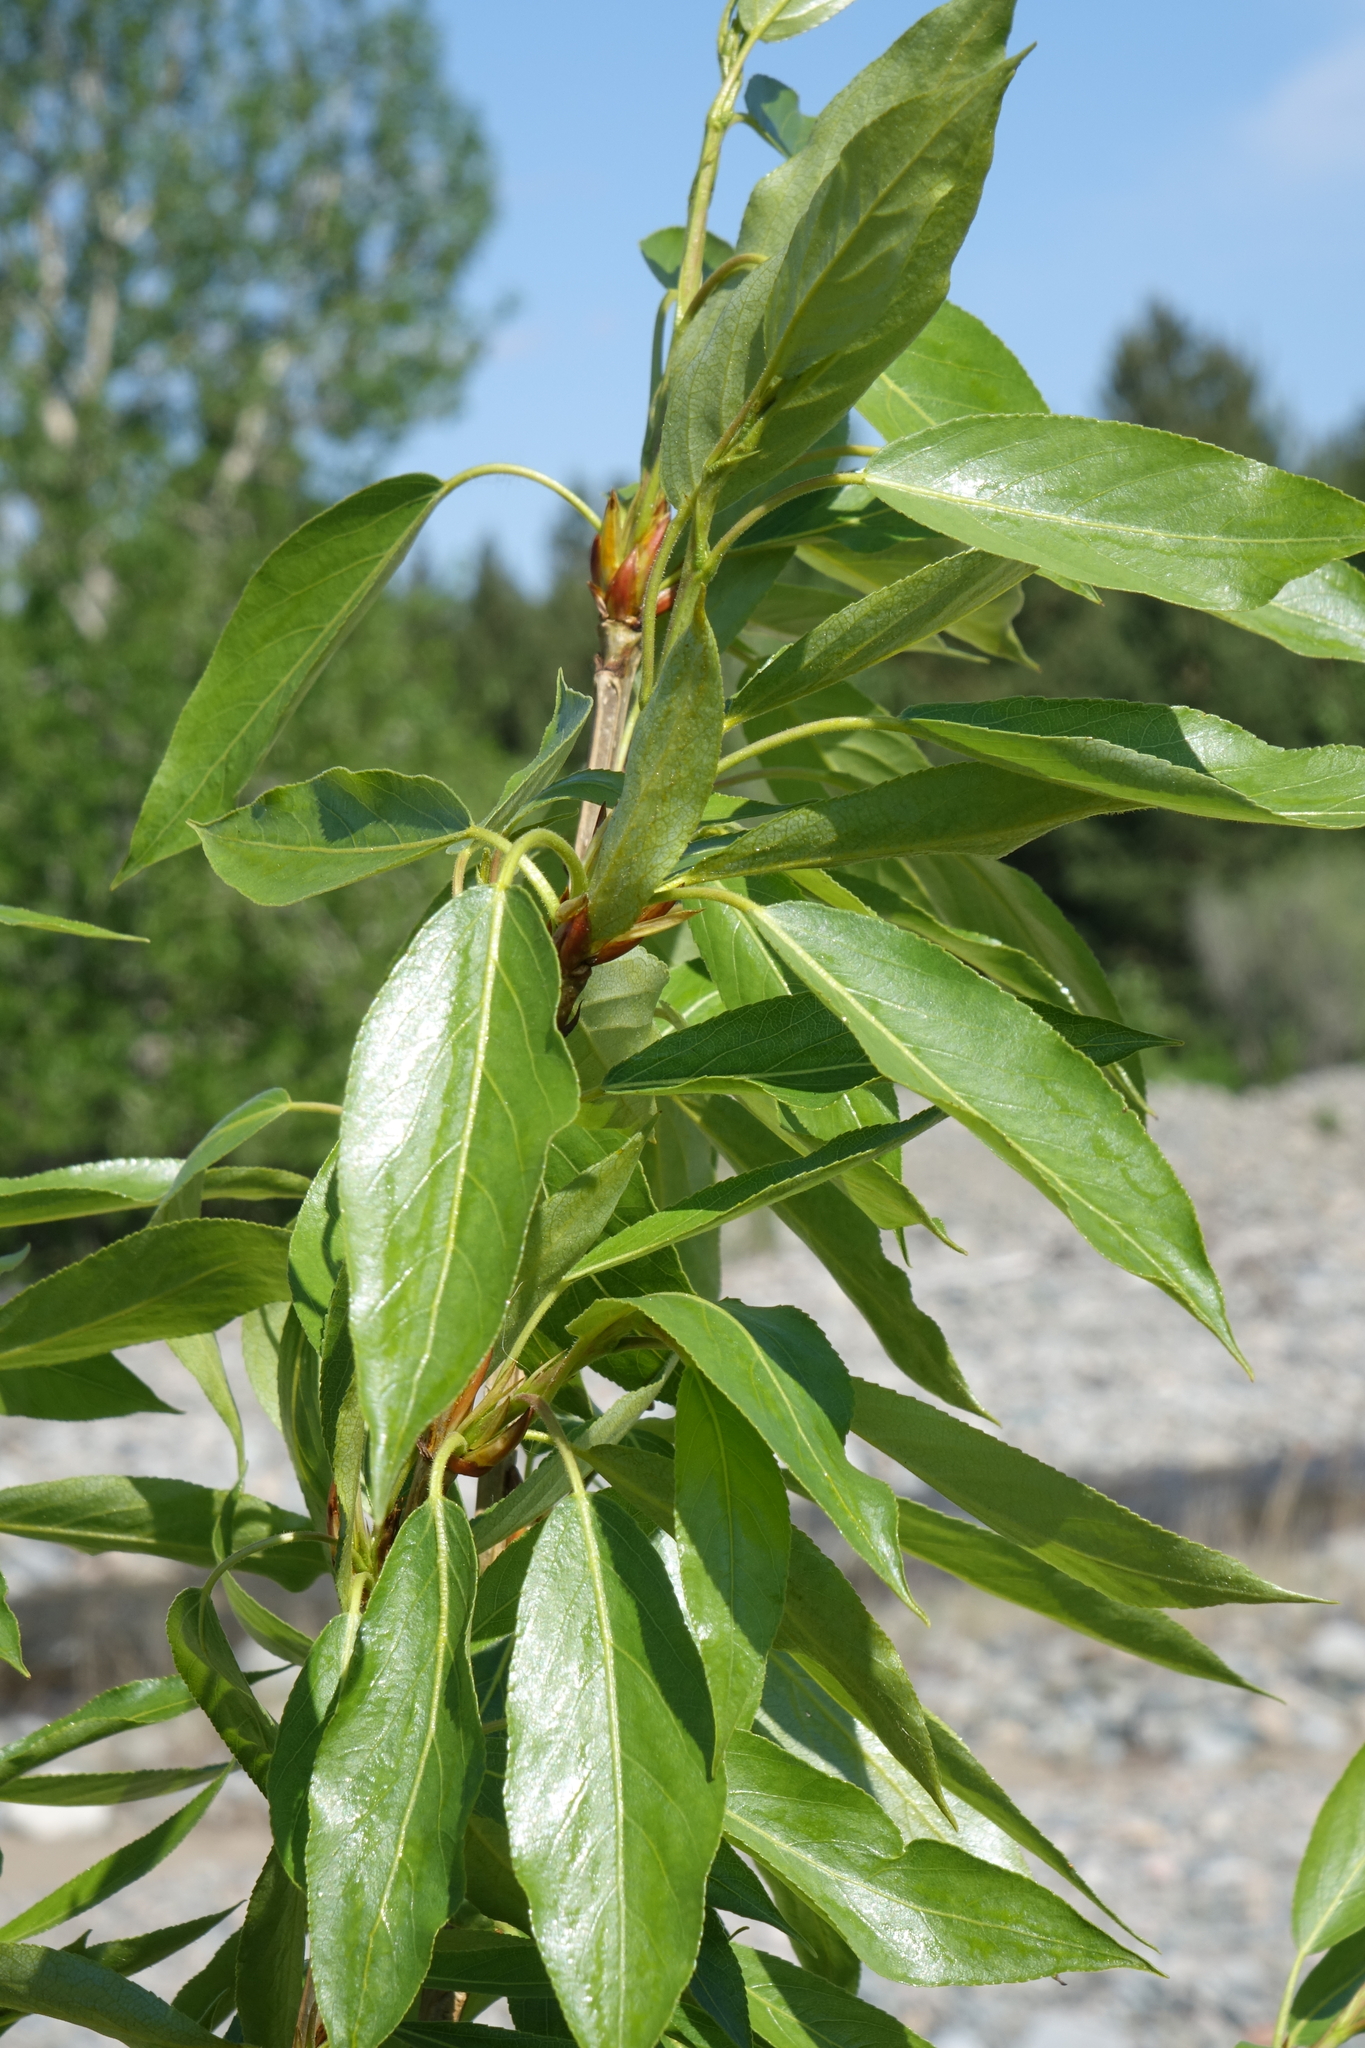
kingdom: Plantae
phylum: Tracheophyta
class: Magnoliopsida
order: Malpighiales
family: Salicaceae
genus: Populus
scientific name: Populus laurifolia
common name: Laurel-leaf poplar
